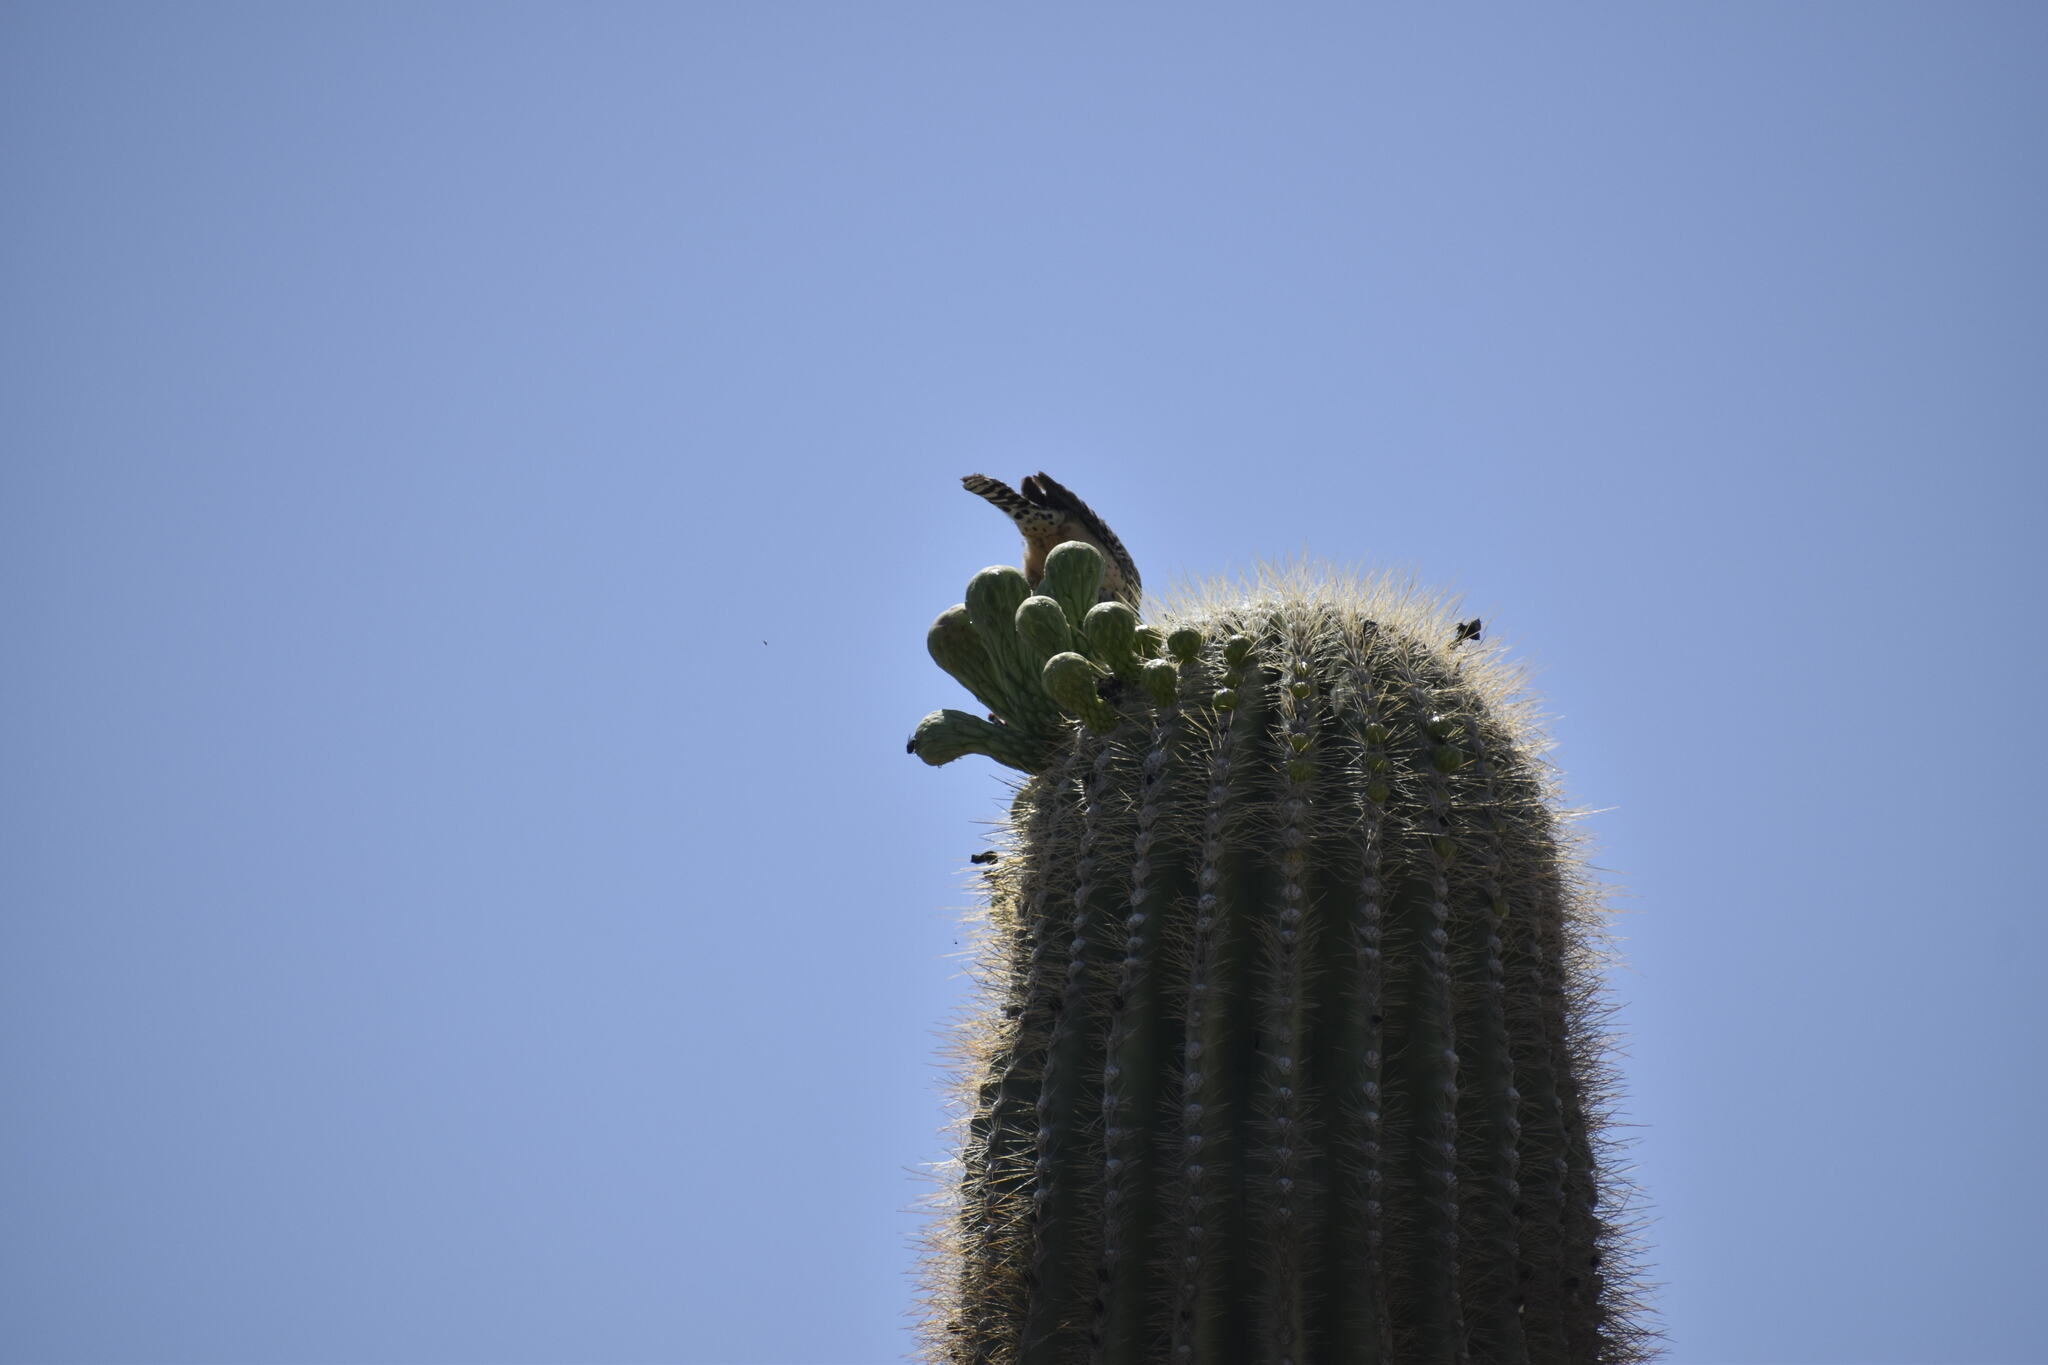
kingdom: Animalia
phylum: Chordata
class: Aves
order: Passeriformes
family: Troglodytidae
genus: Campylorhynchus
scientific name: Campylorhynchus brunneicapillus
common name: Cactus wren
